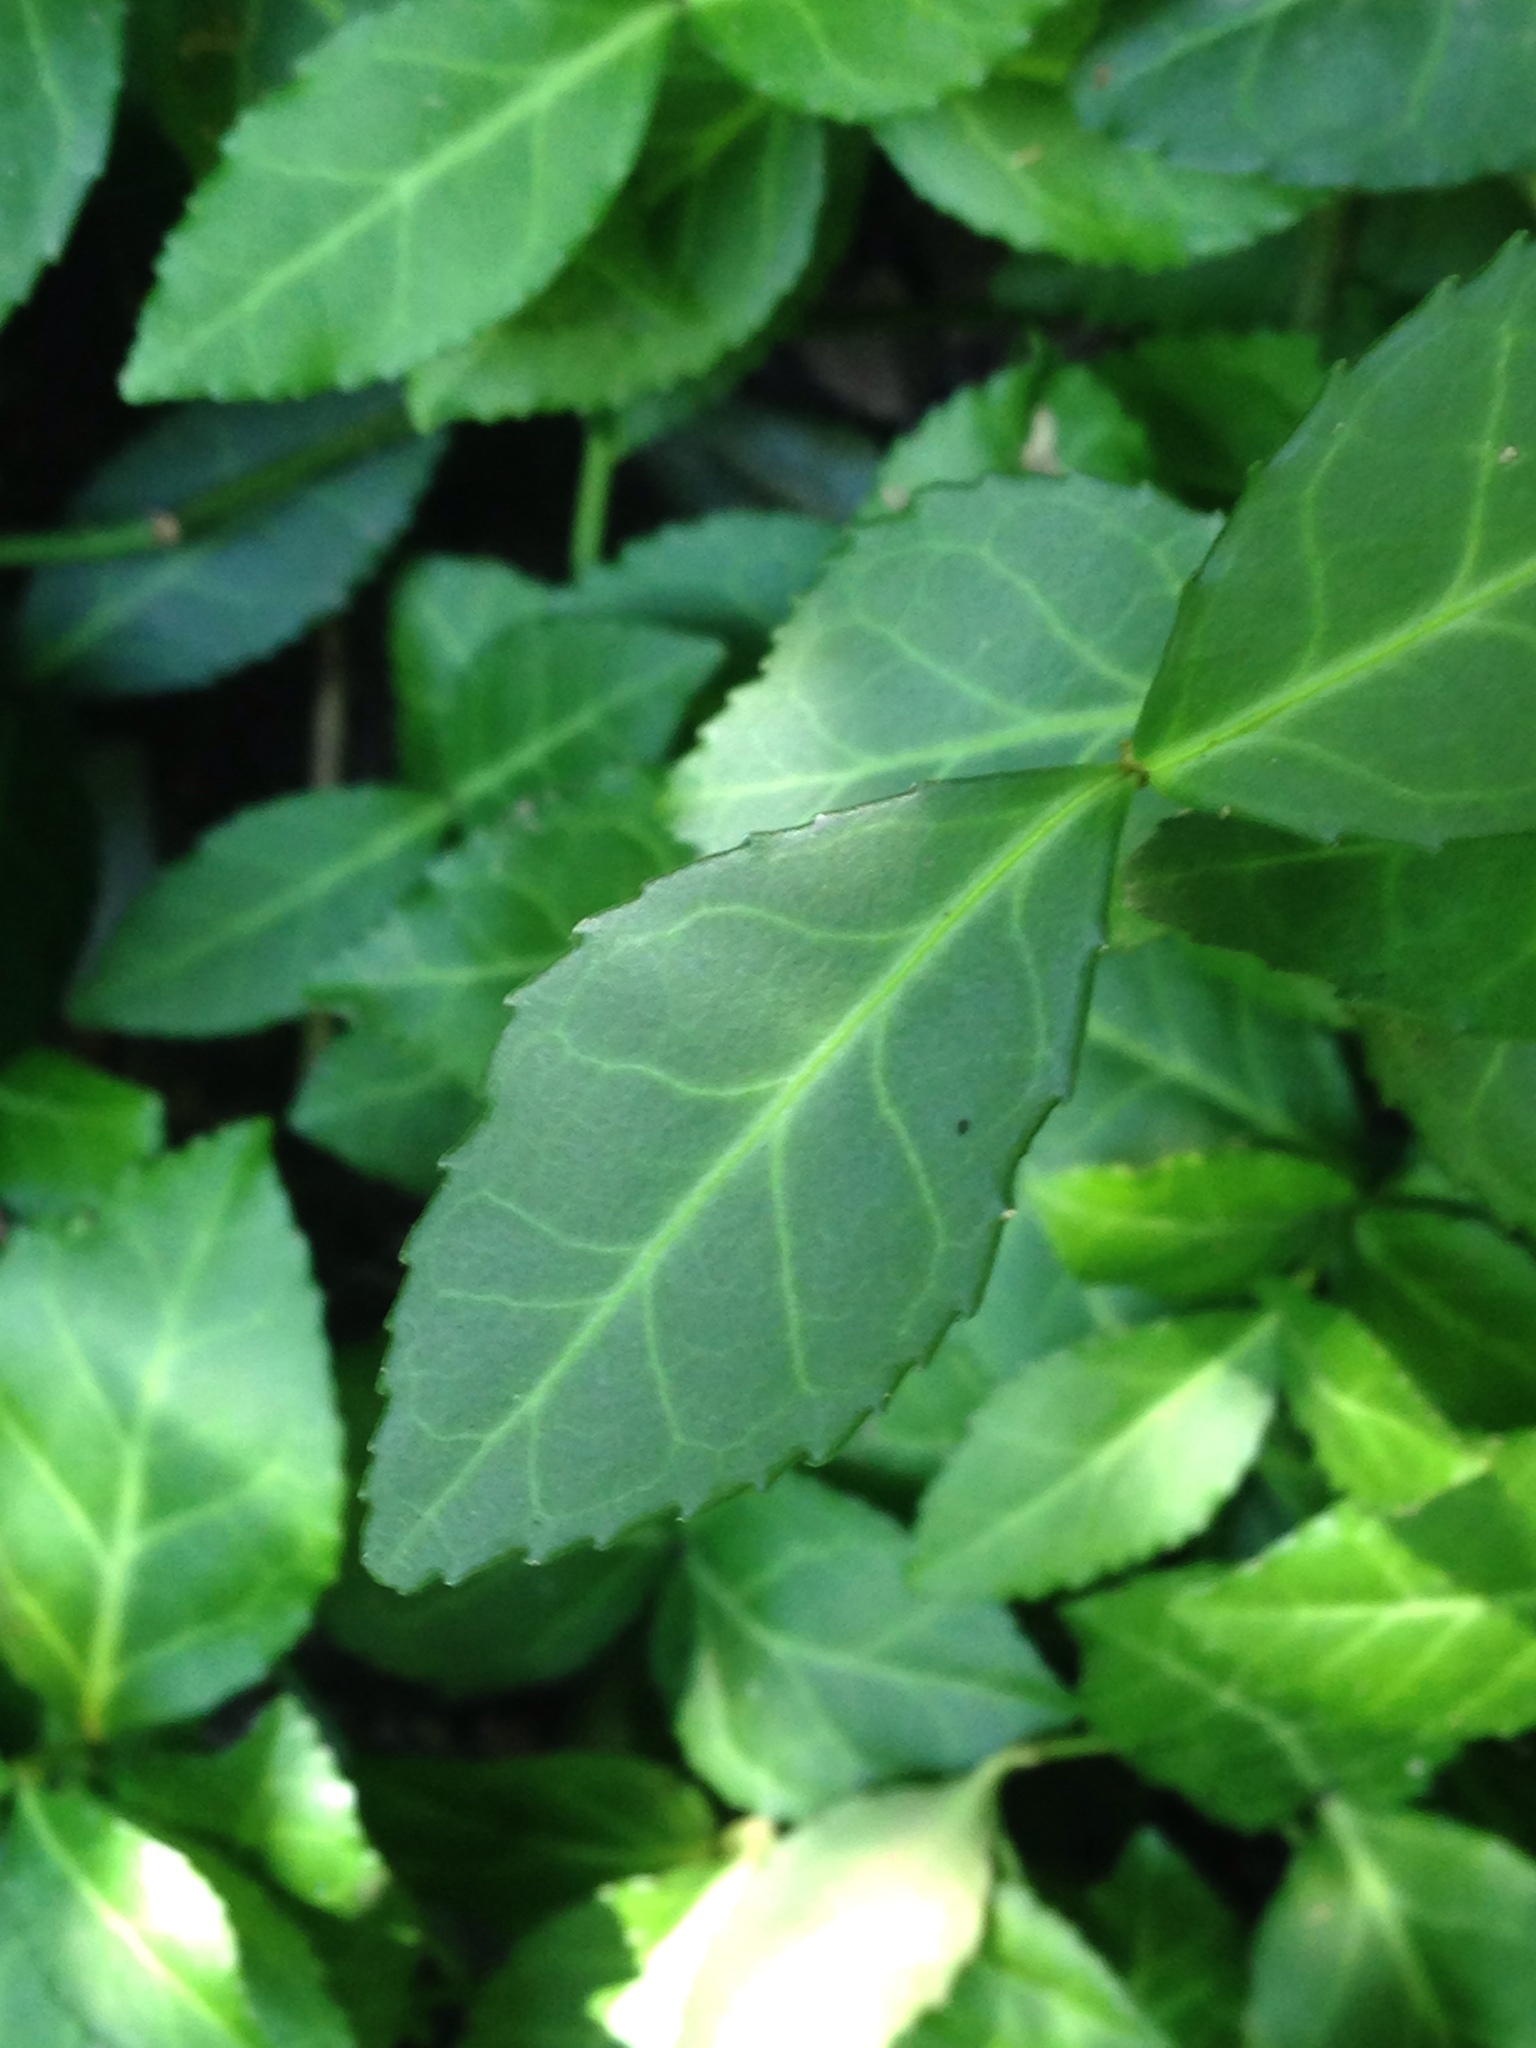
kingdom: Plantae
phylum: Tracheophyta
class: Magnoliopsida
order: Celastrales
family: Celastraceae
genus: Euonymus
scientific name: Euonymus fortunei
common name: Climbing euonymus
